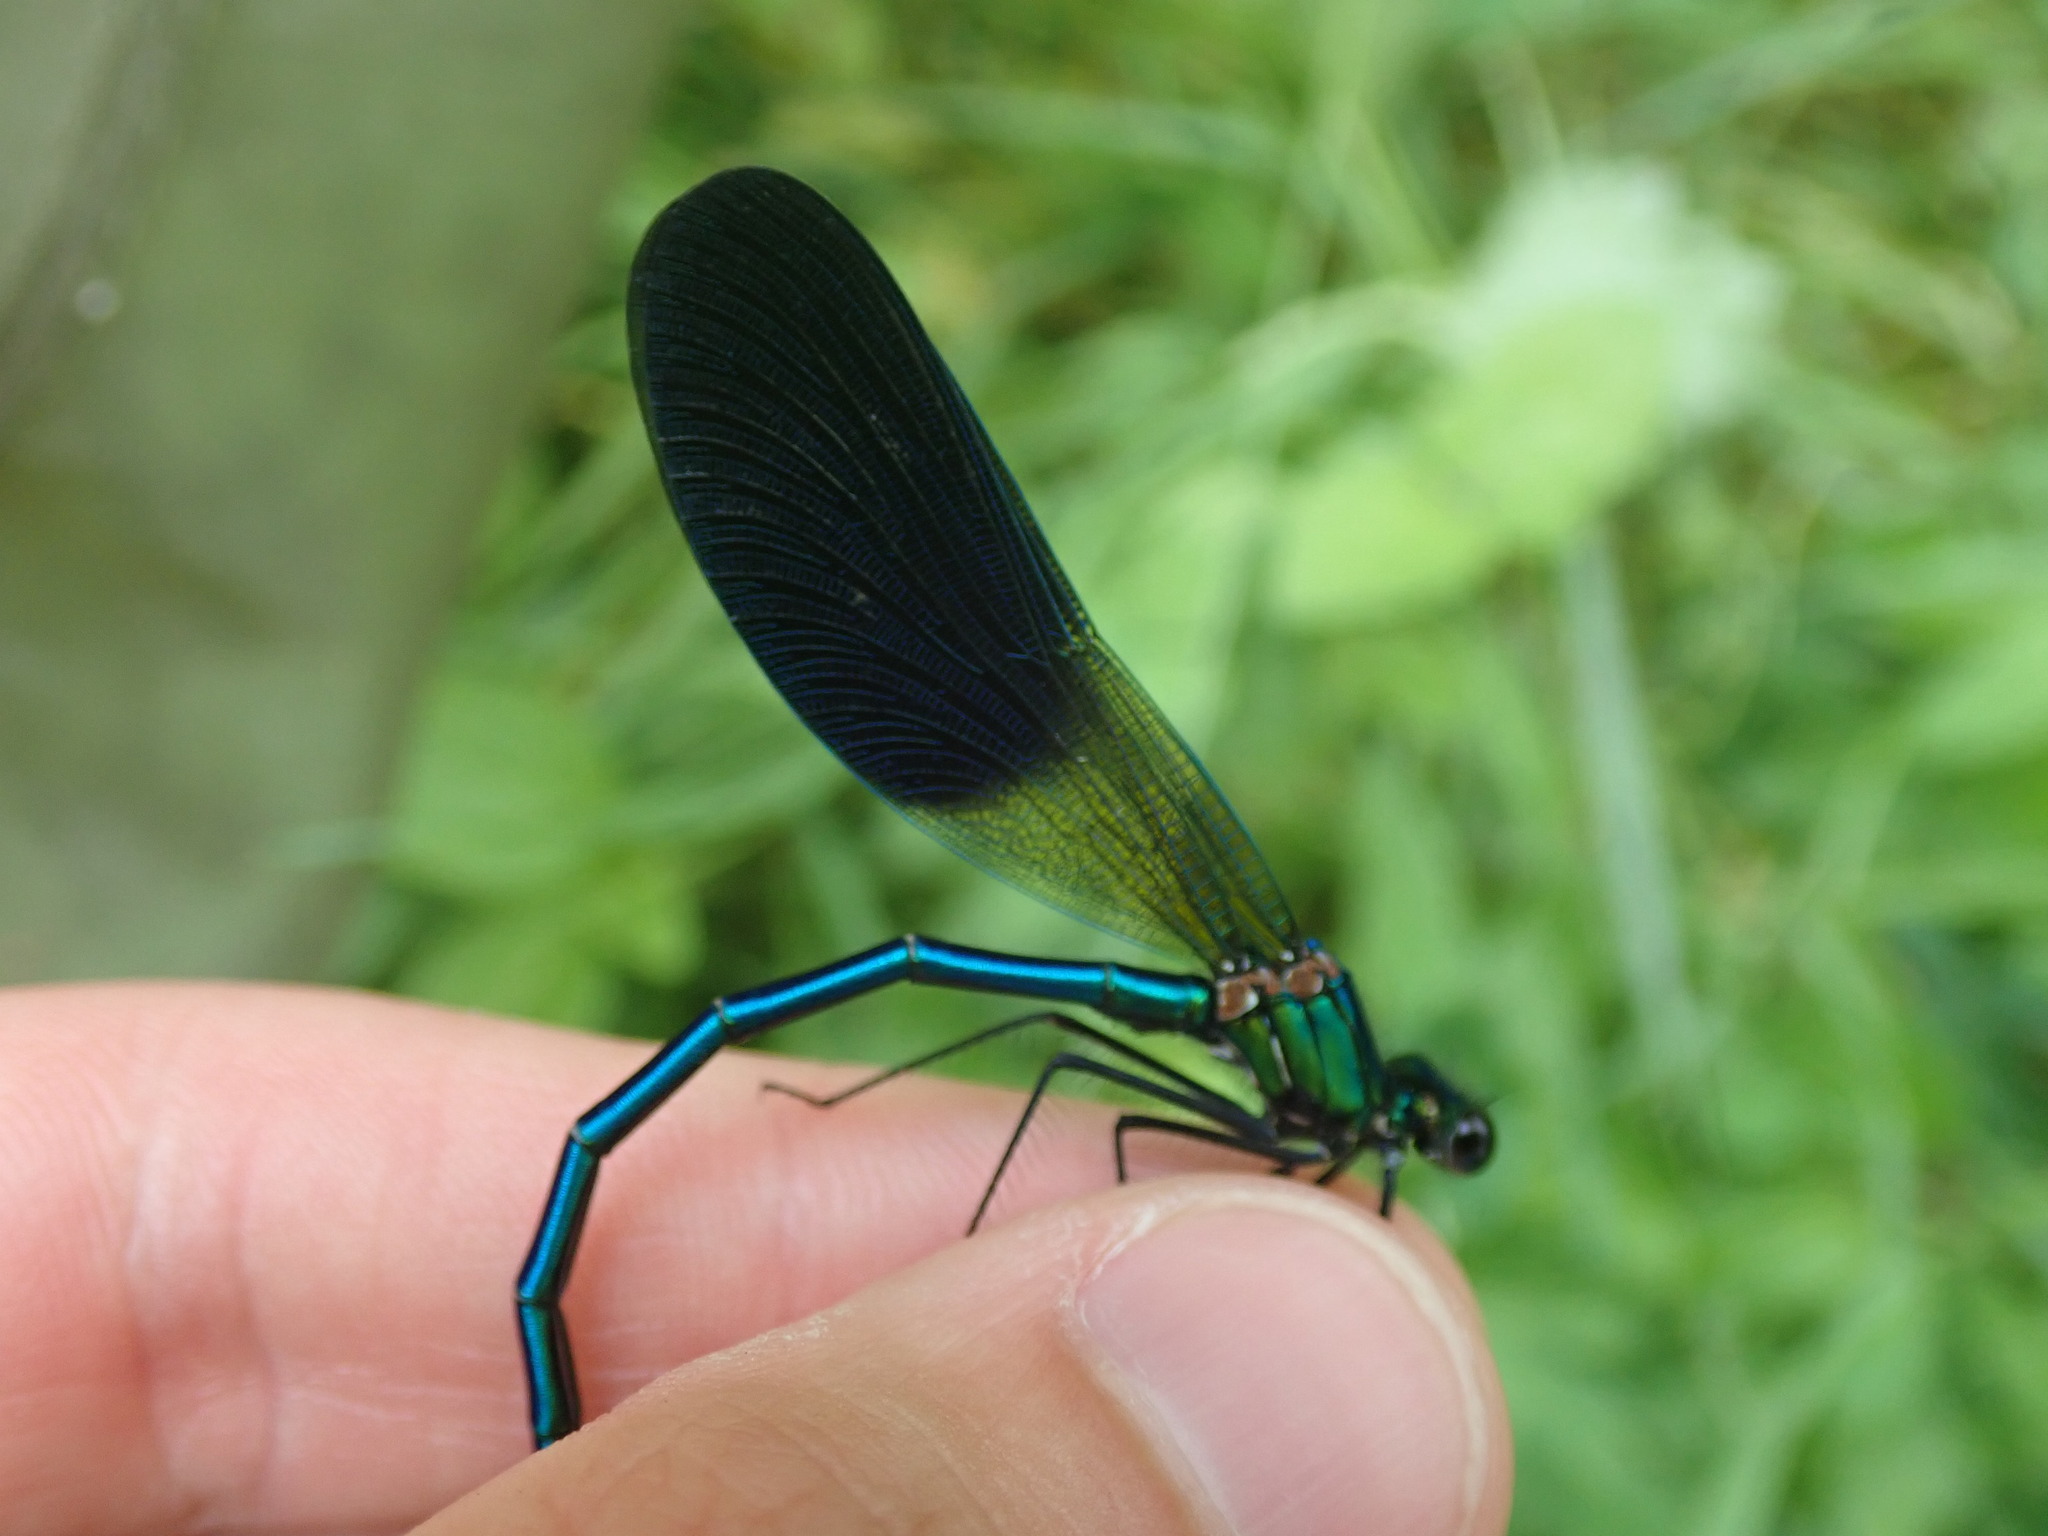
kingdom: Animalia
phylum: Arthropoda
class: Insecta
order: Odonata
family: Calopterygidae
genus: Calopteryx
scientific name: Calopteryx xanthostoma
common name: Western demoiselle
